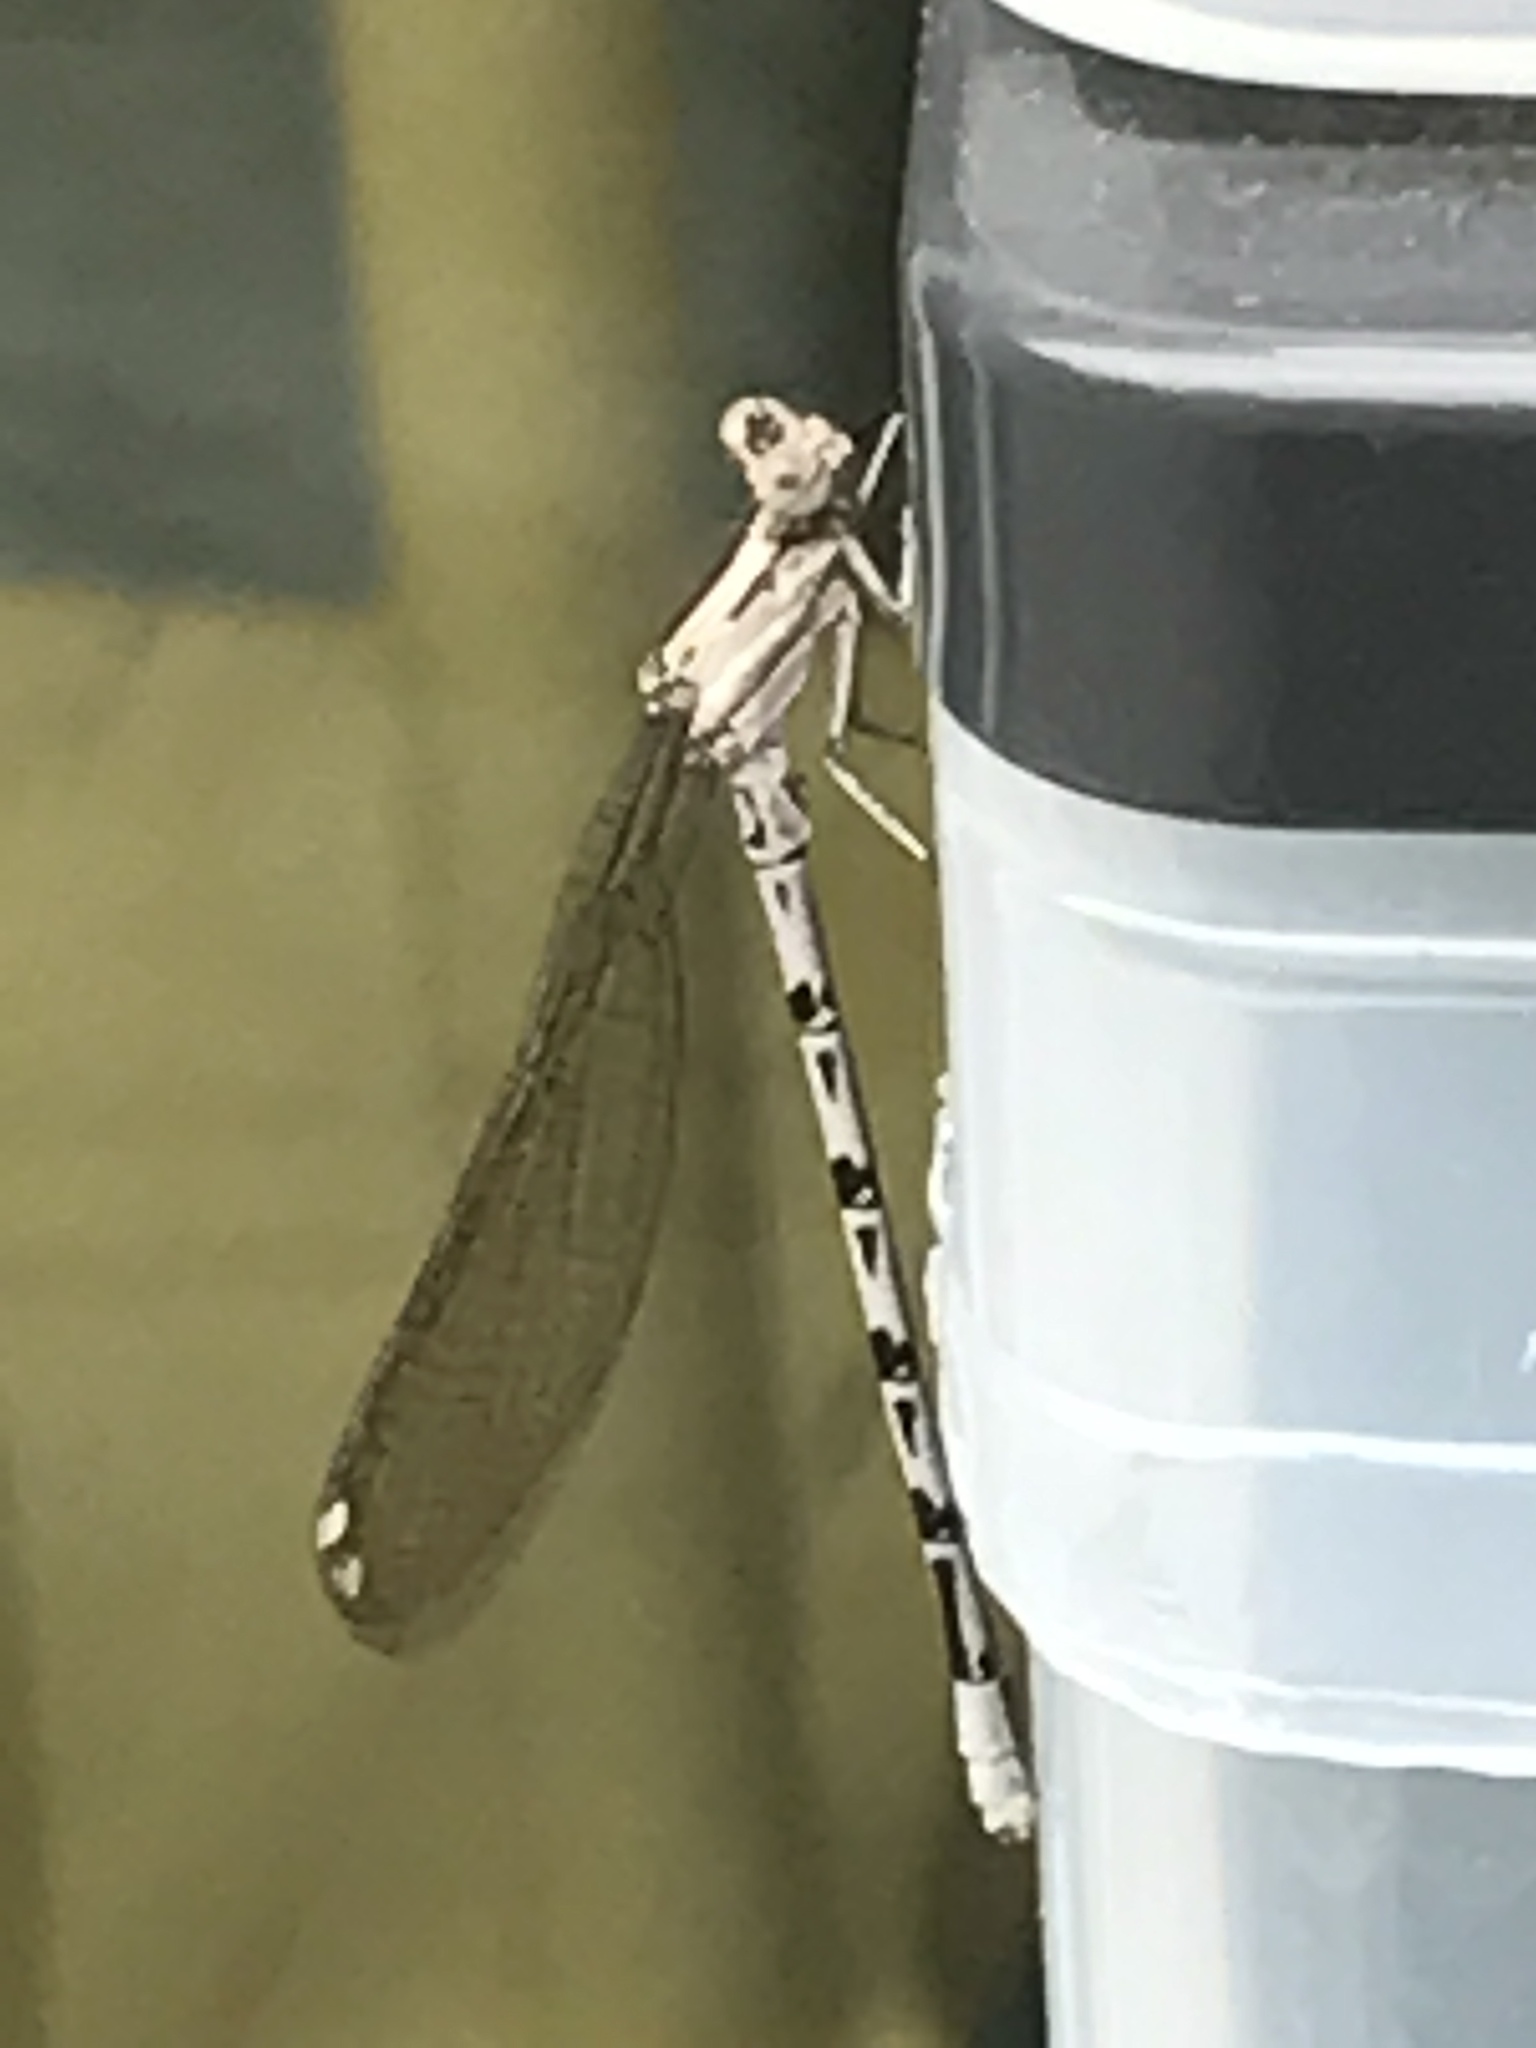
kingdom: Animalia
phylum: Arthropoda
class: Insecta
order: Odonata
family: Coenagrionidae
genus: Argia
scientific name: Argia vivida
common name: Vivid dancer
